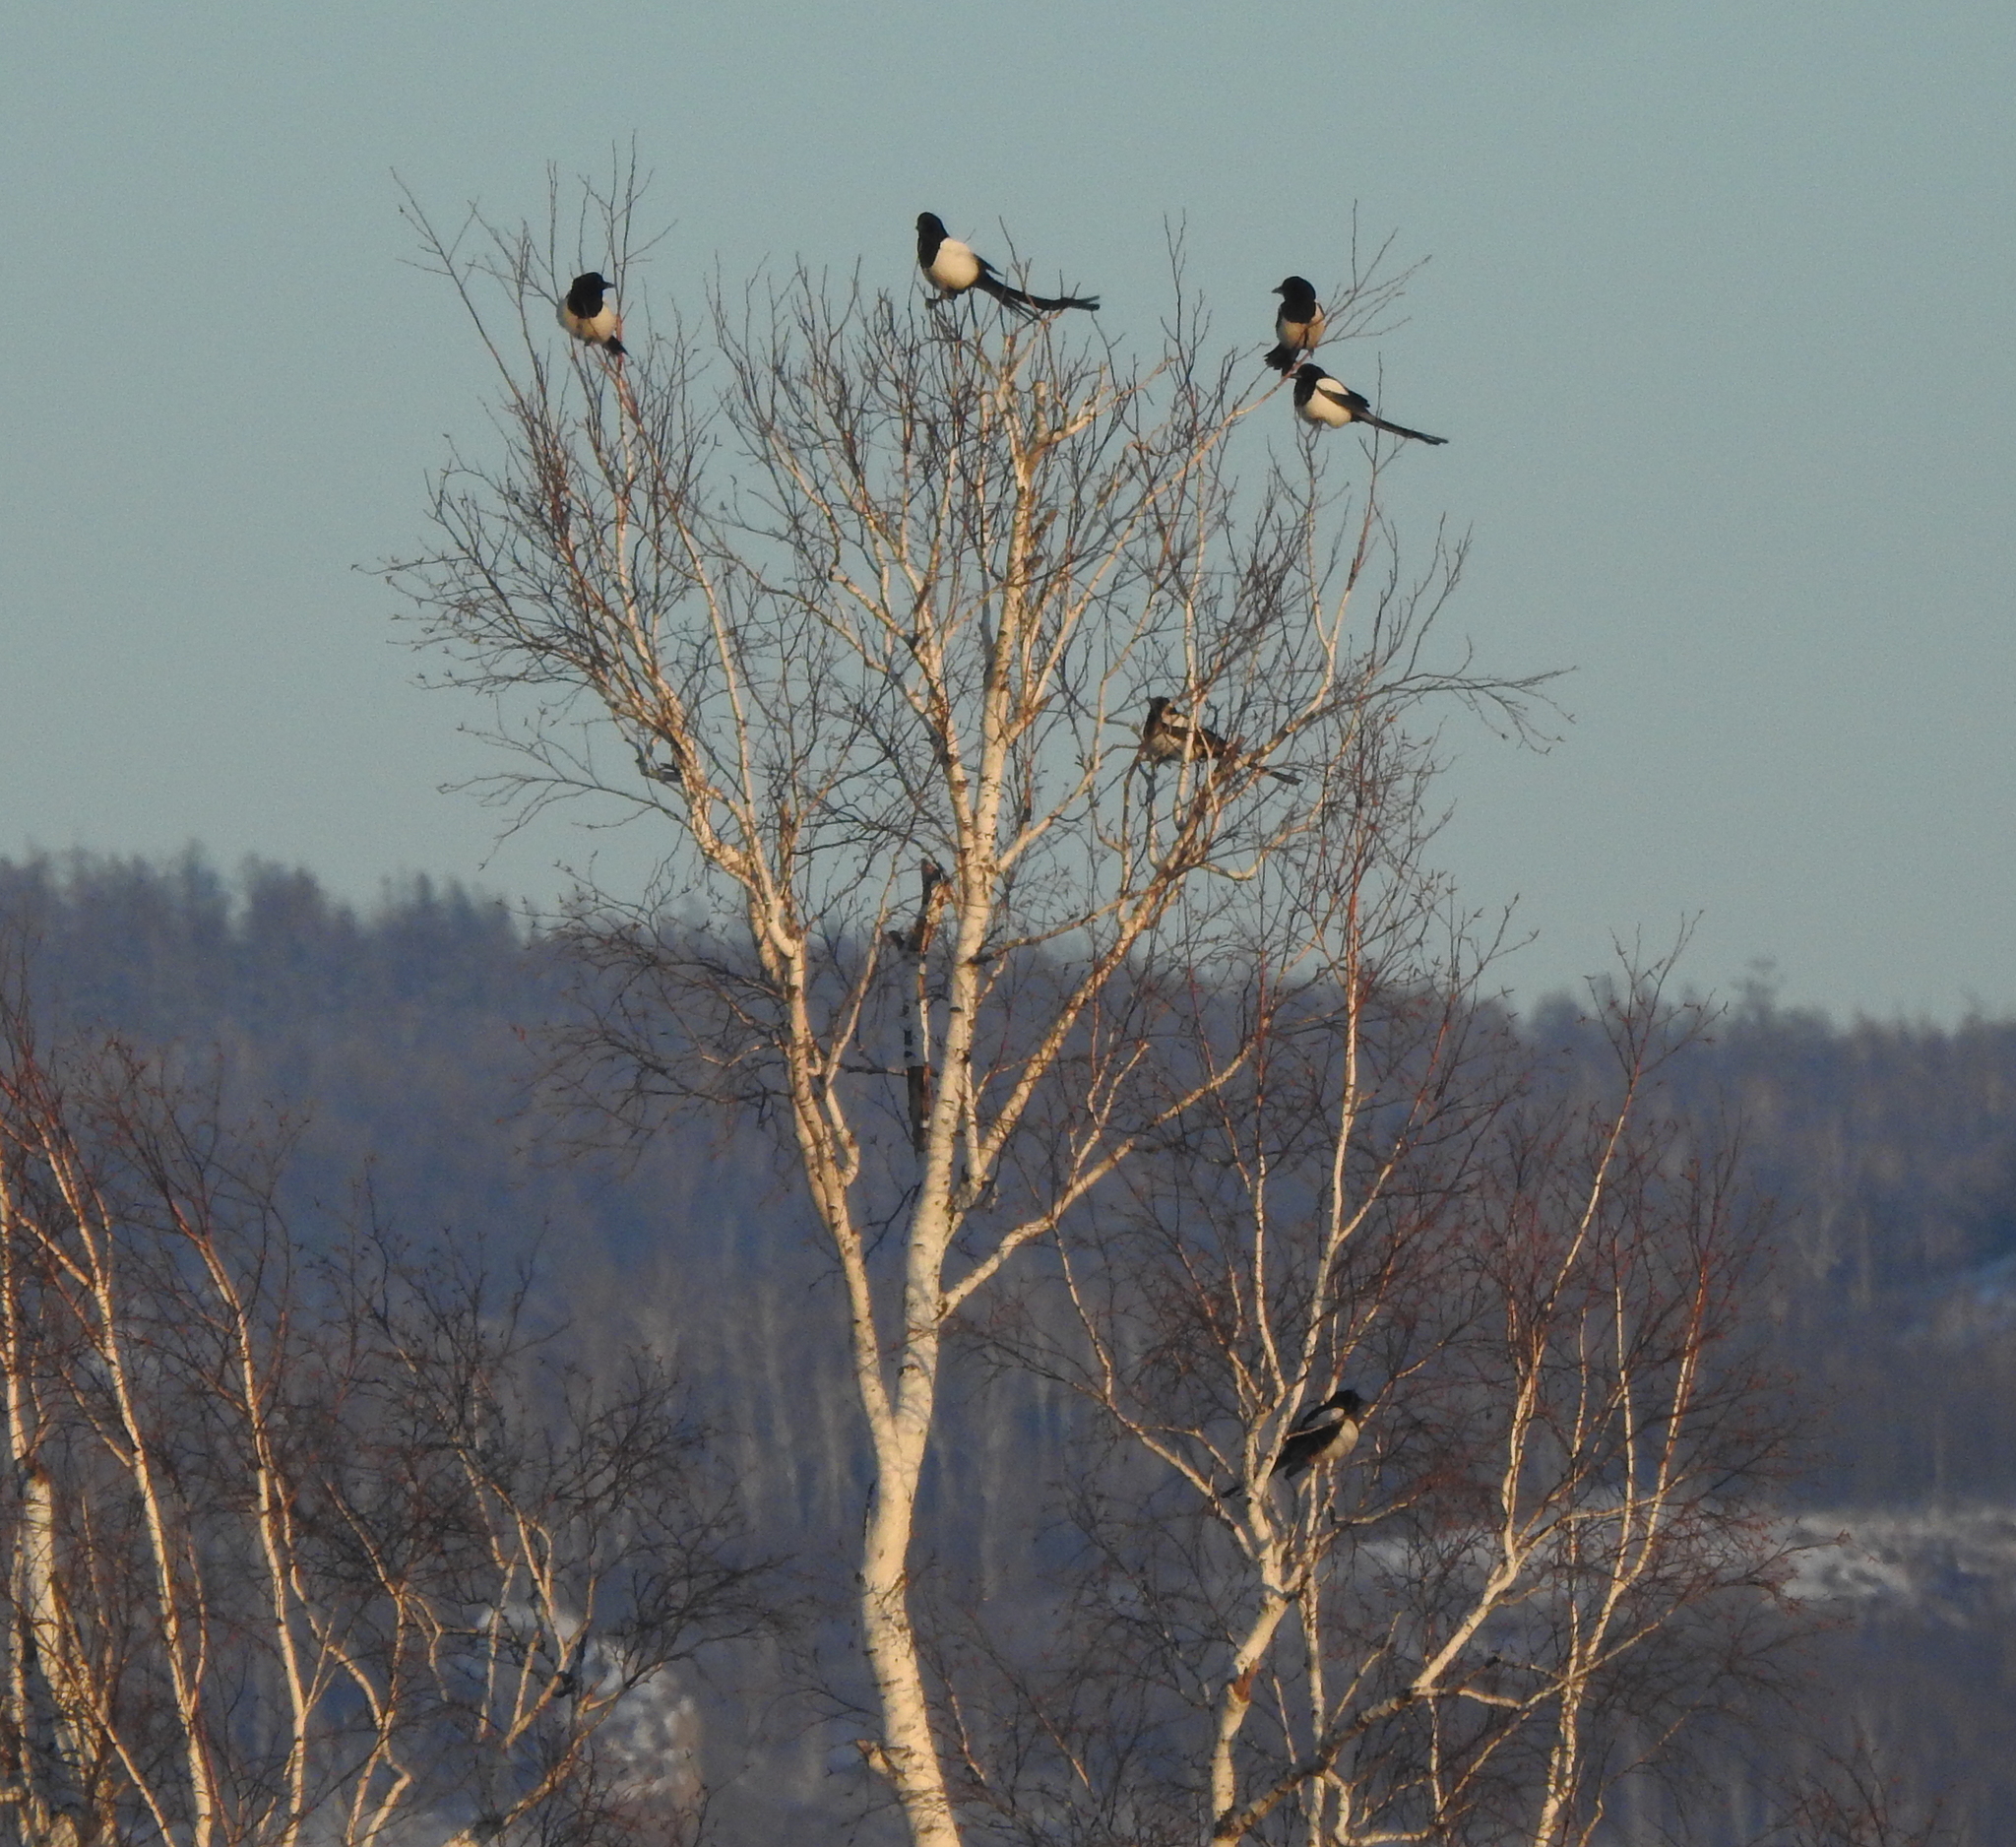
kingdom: Animalia
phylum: Chordata
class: Aves
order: Passeriformes
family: Corvidae
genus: Pica
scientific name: Pica pica
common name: Eurasian magpie
